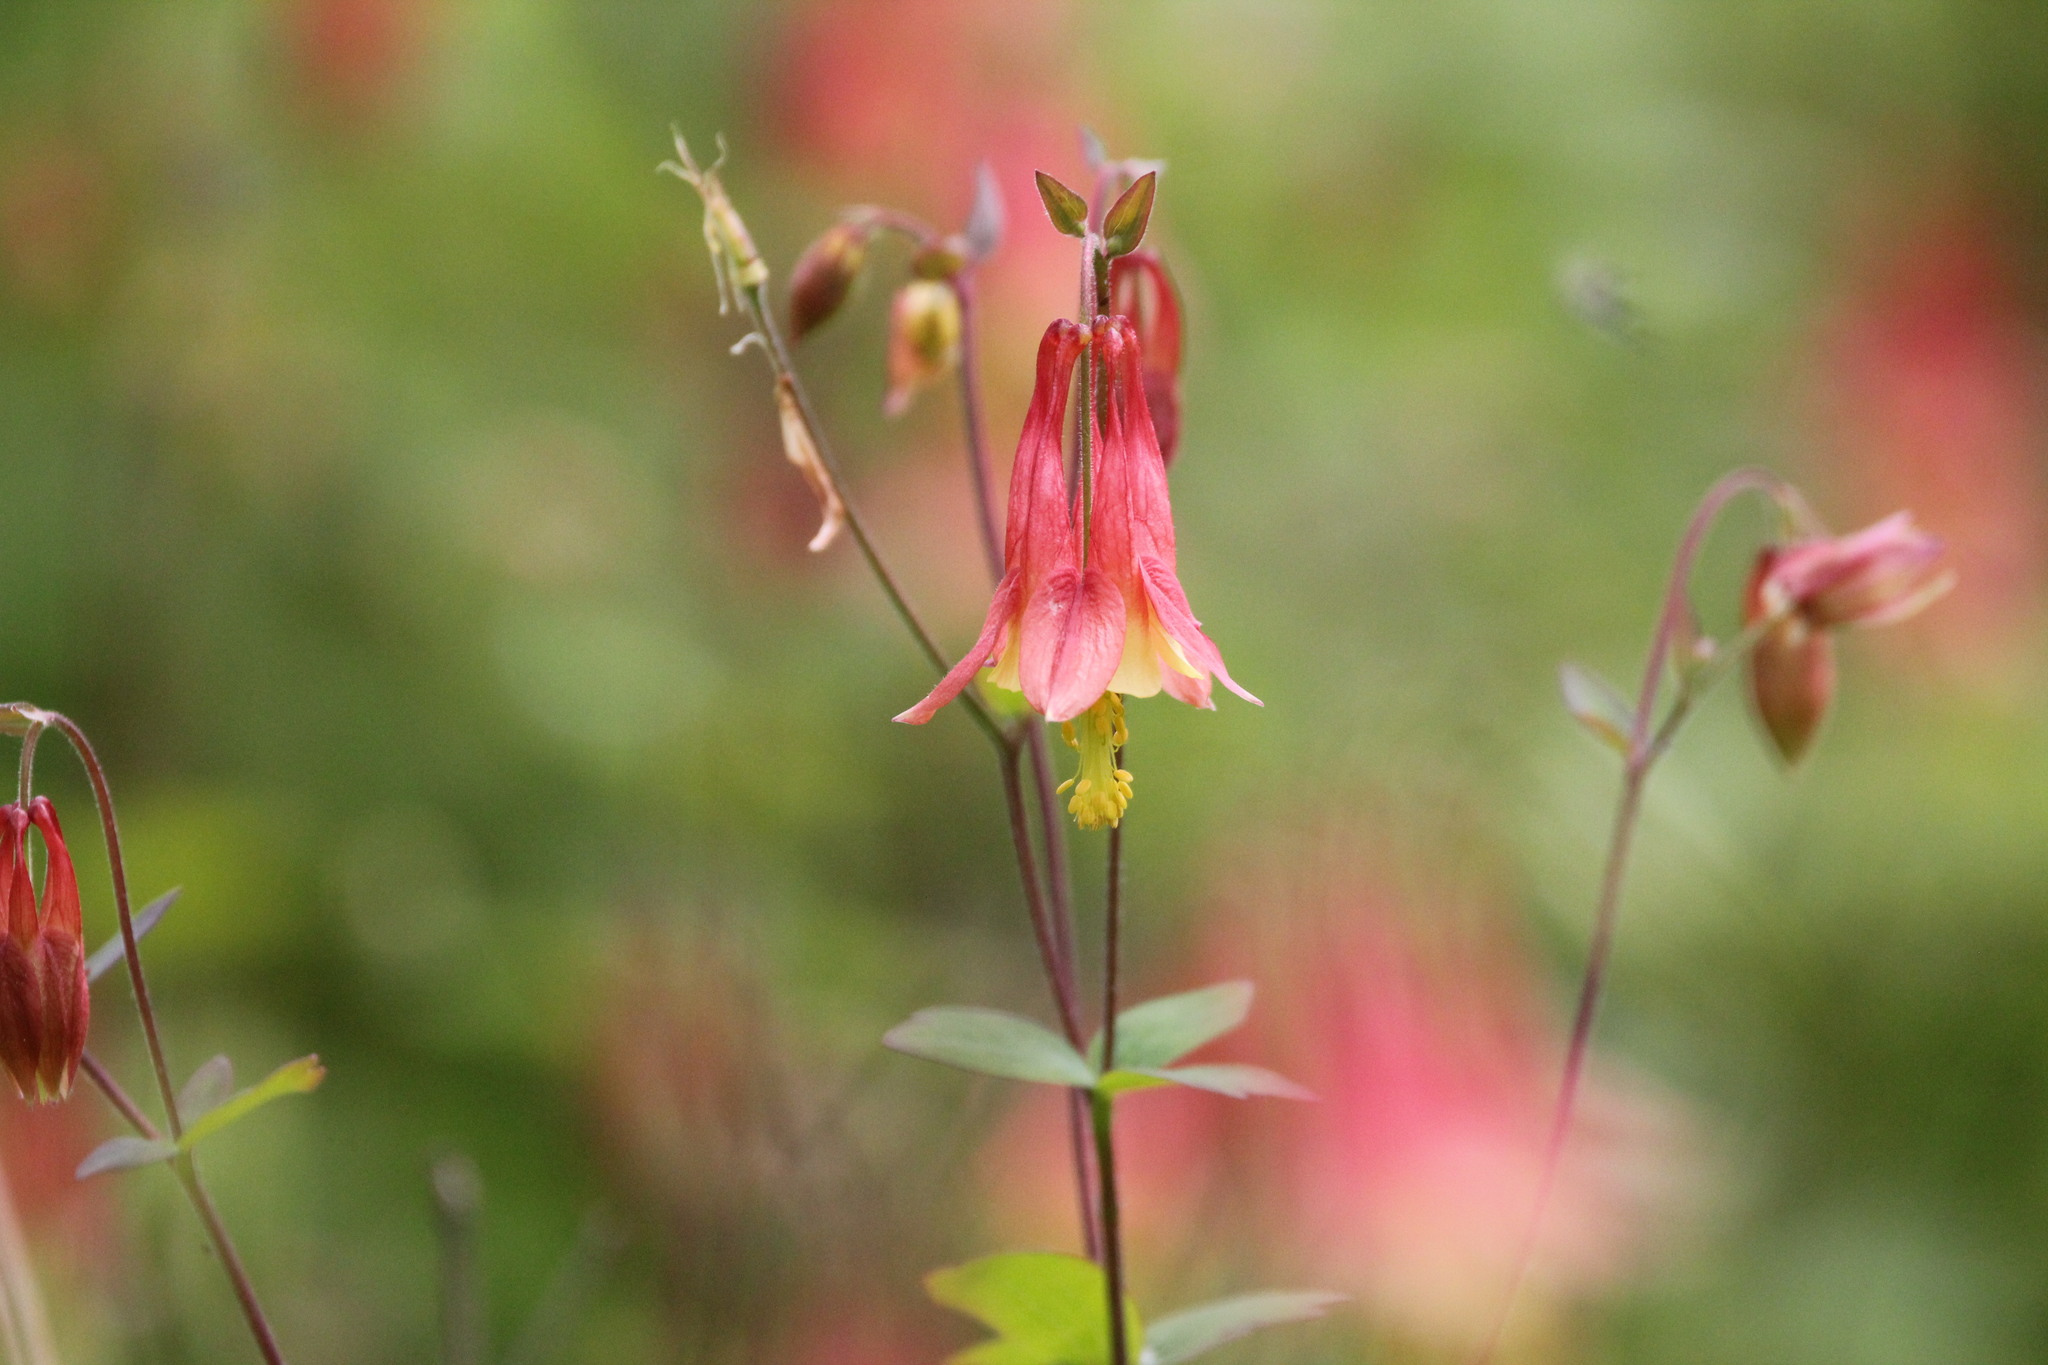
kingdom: Plantae
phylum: Tracheophyta
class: Magnoliopsida
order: Ranunculales
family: Ranunculaceae
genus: Aquilegia
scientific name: Aquilegia canadensis
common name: American columbine
